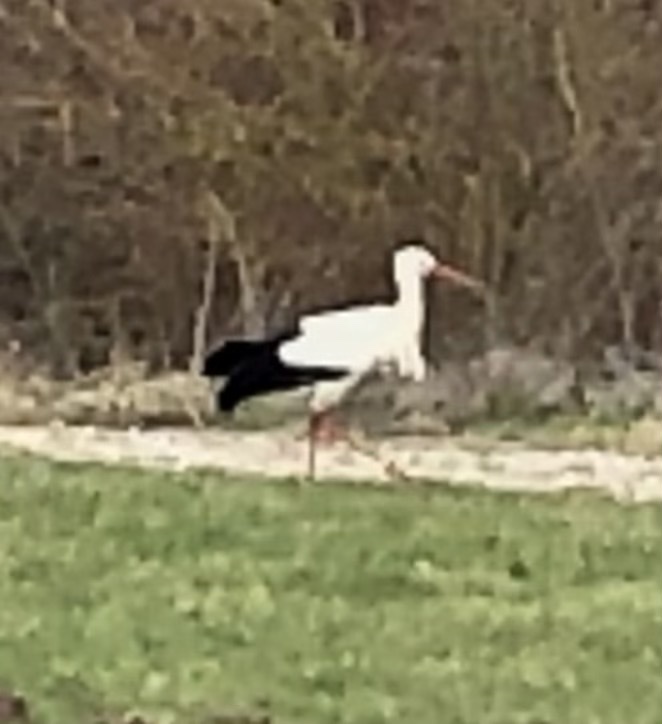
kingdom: Animalia
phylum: Chordata
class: Aves
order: Ciconiiformes
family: Ciconiidae
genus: Ciconia
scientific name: Ciconia ciconia
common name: White stork
